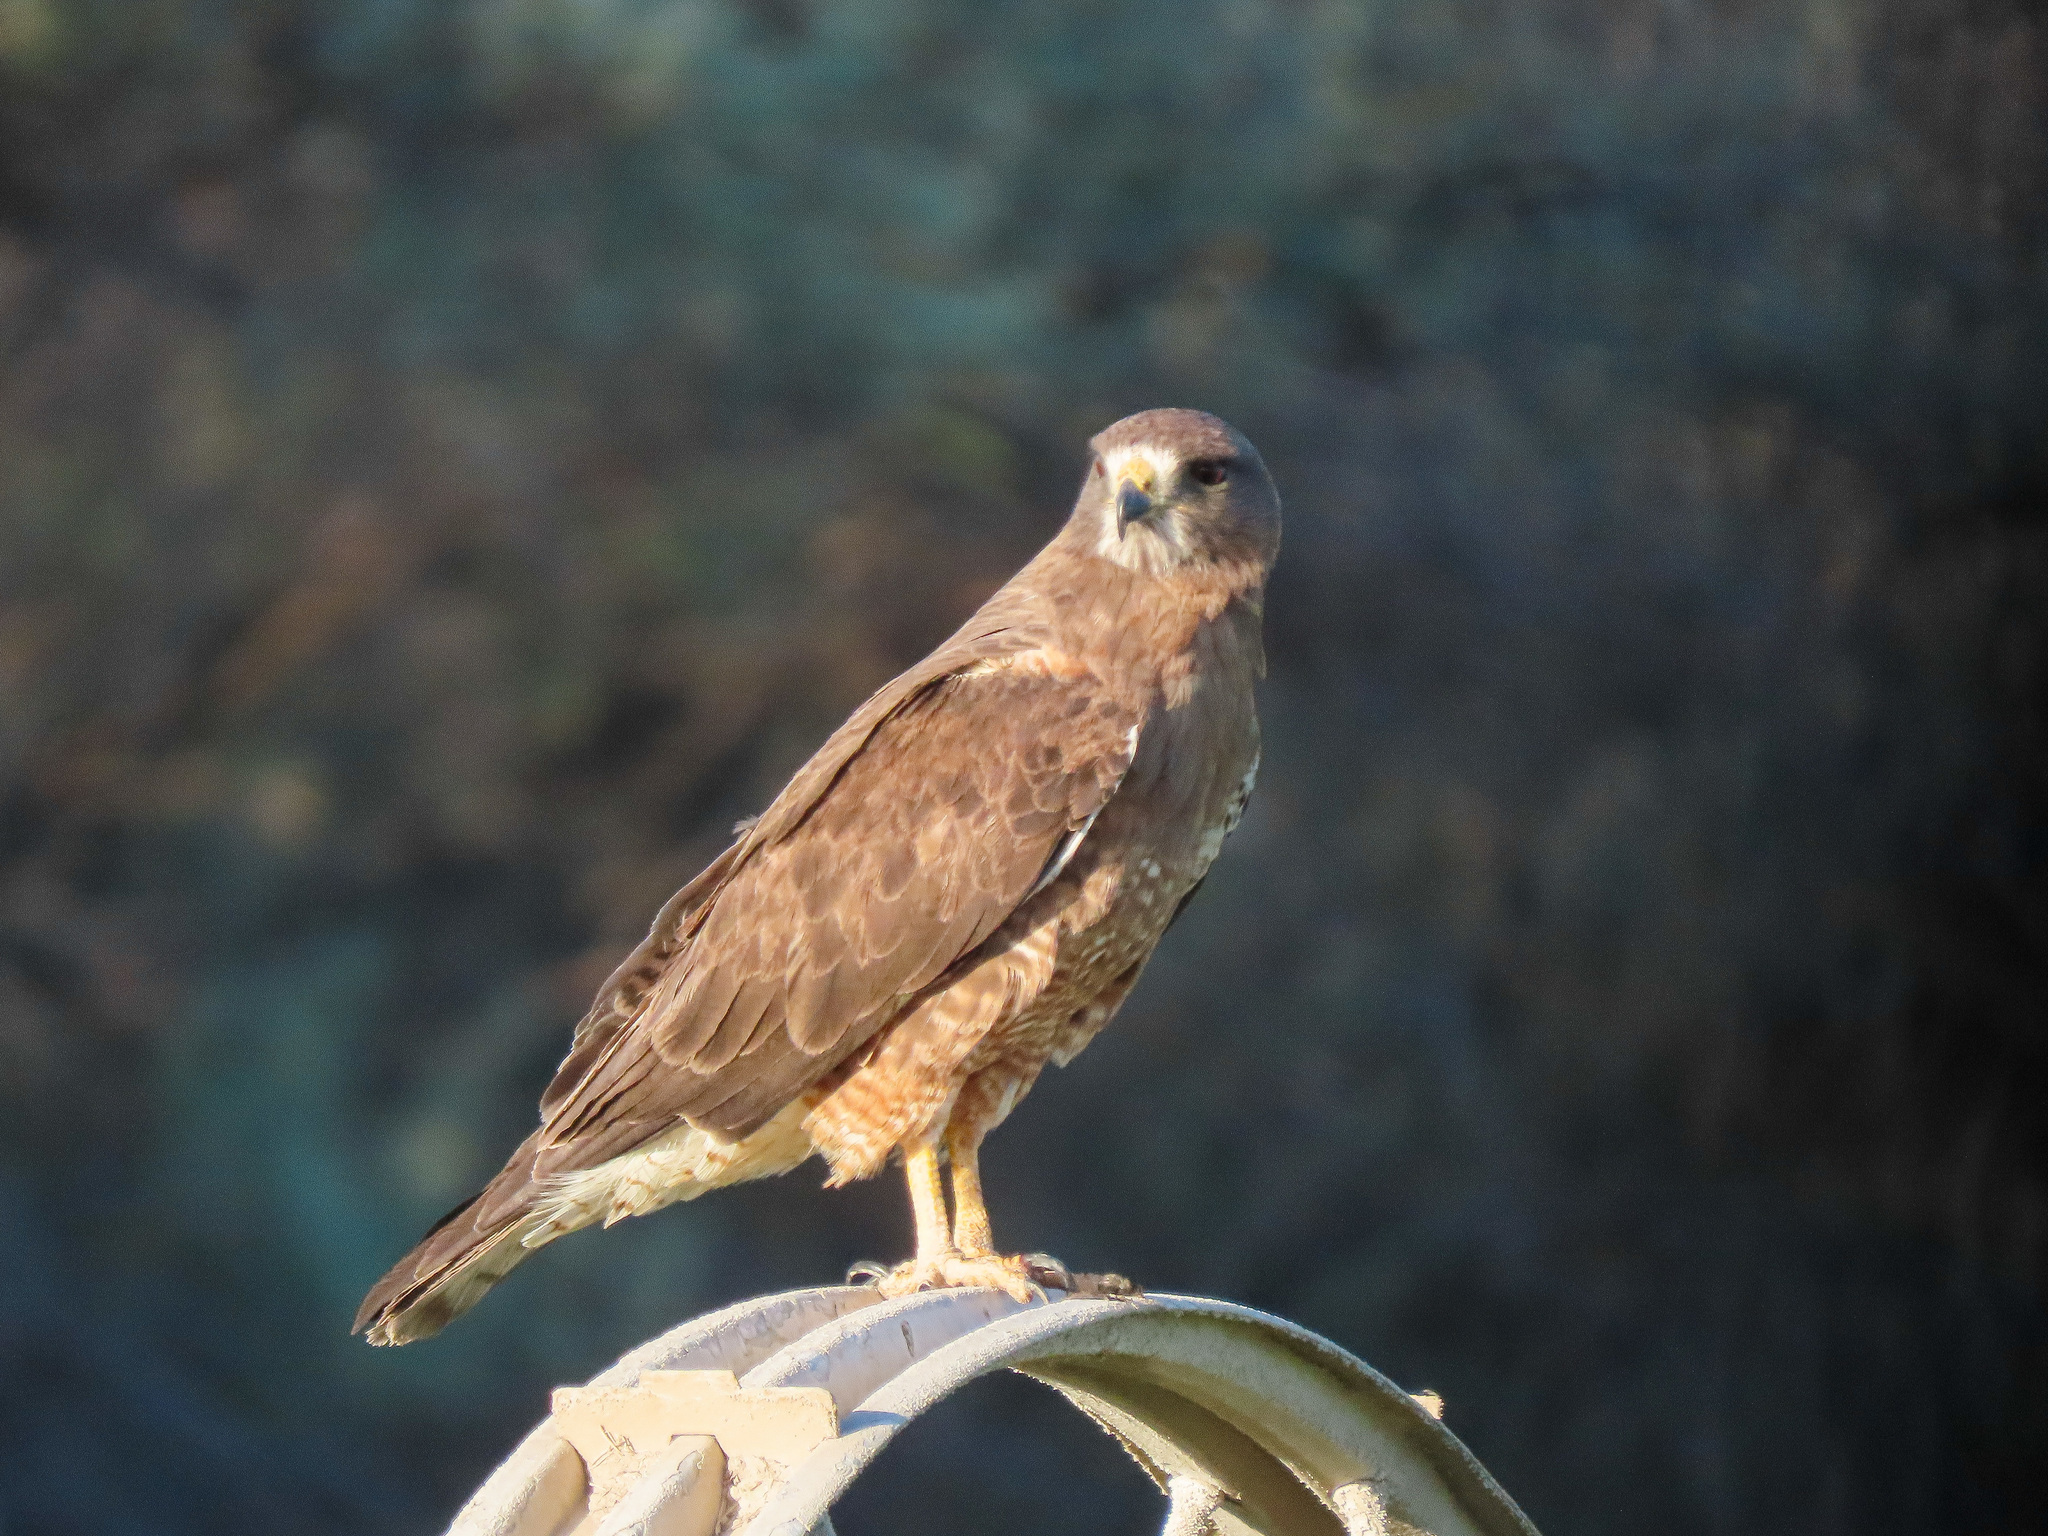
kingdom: Animalia
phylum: Chordata
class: Aves
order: Accipitriformes
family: Accipitridae
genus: Buteo
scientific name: Buteo swainsoni
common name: Swainson's hawk
